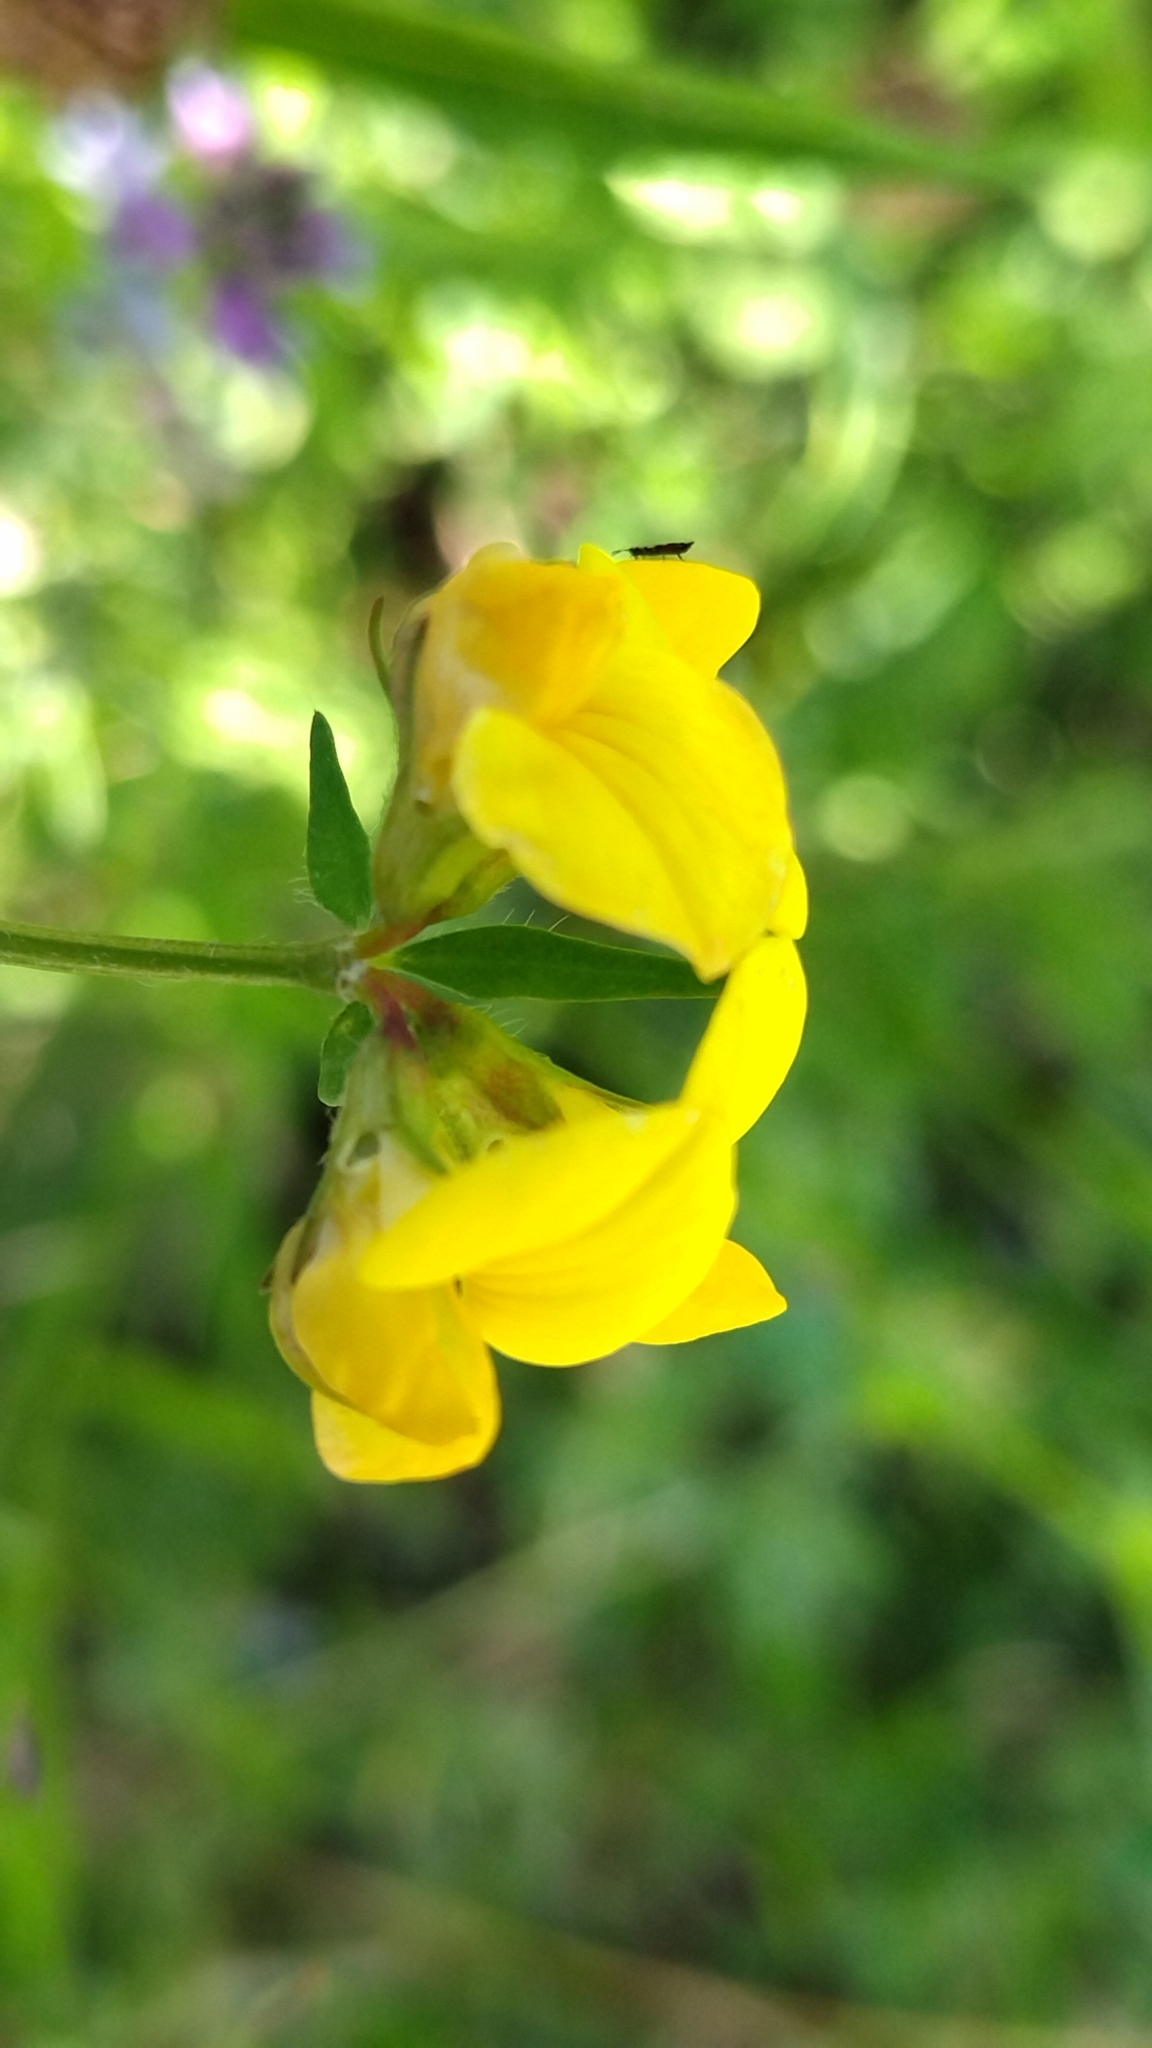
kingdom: Plantae
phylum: Tracheophyta
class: Magnoliopsida
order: Fabales
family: Fabaceae
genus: Lotus
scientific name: Lotus corniculatus
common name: Common bird's-foot-trefoil
